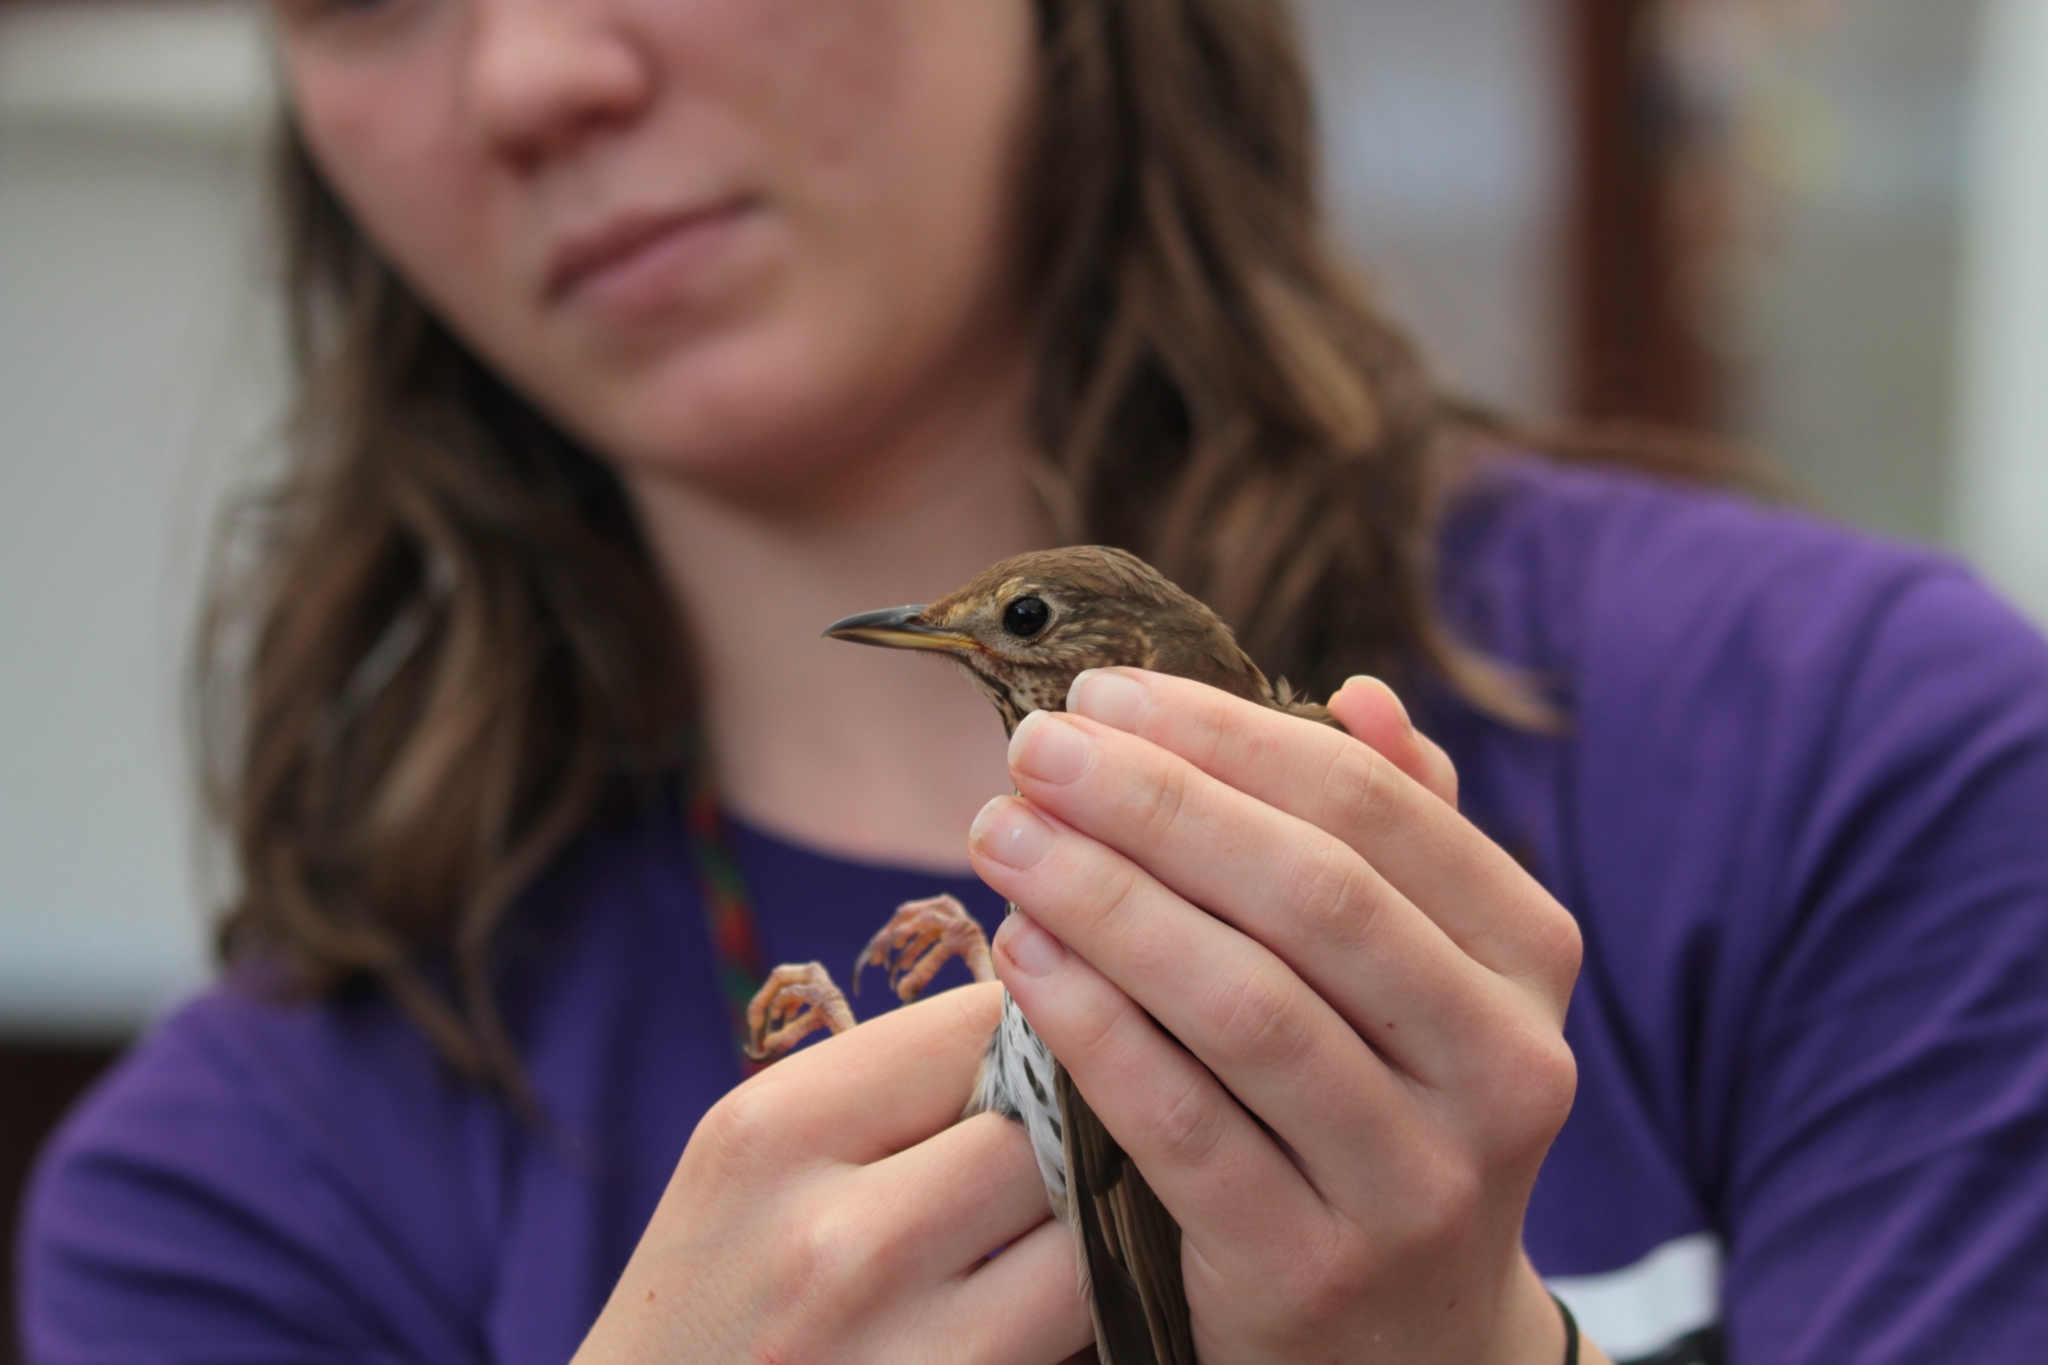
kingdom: Animalia
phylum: Chordata
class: Aves
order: Passeriformes
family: Turdidae
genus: Turdus
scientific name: Turdus philomelos
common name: Song thrush
